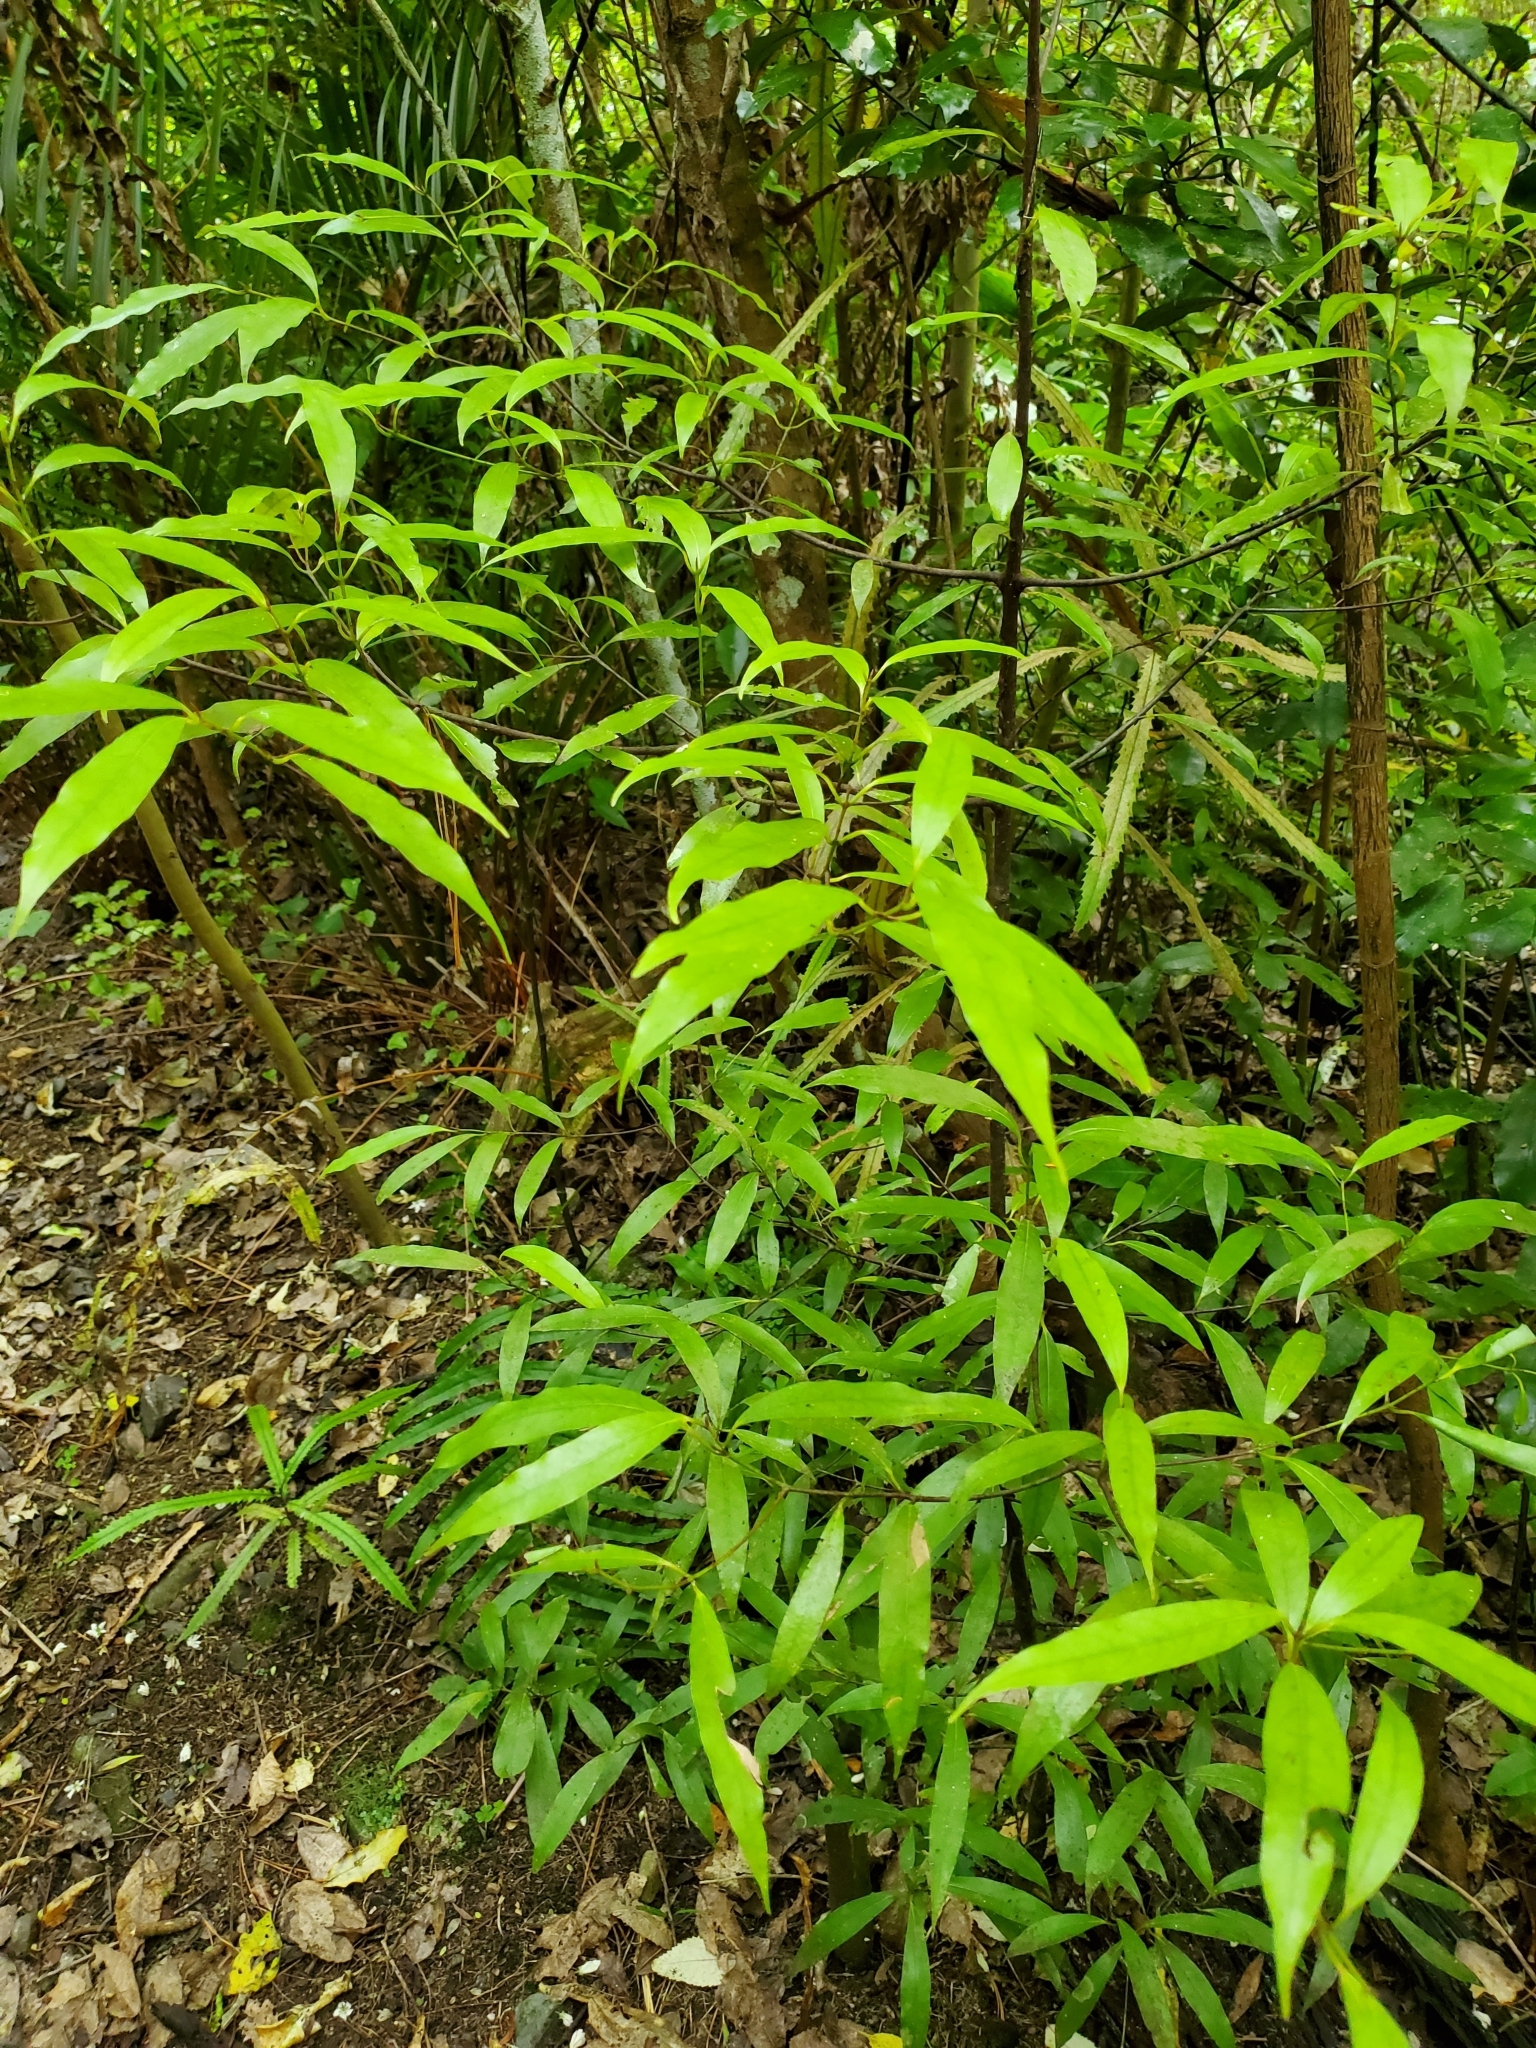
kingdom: Plantae
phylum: Tracheophyta
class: Magnoliopsida
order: Laurales
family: Lauraceae
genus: Beilschmiedia
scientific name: Beilschmiedia tawa
